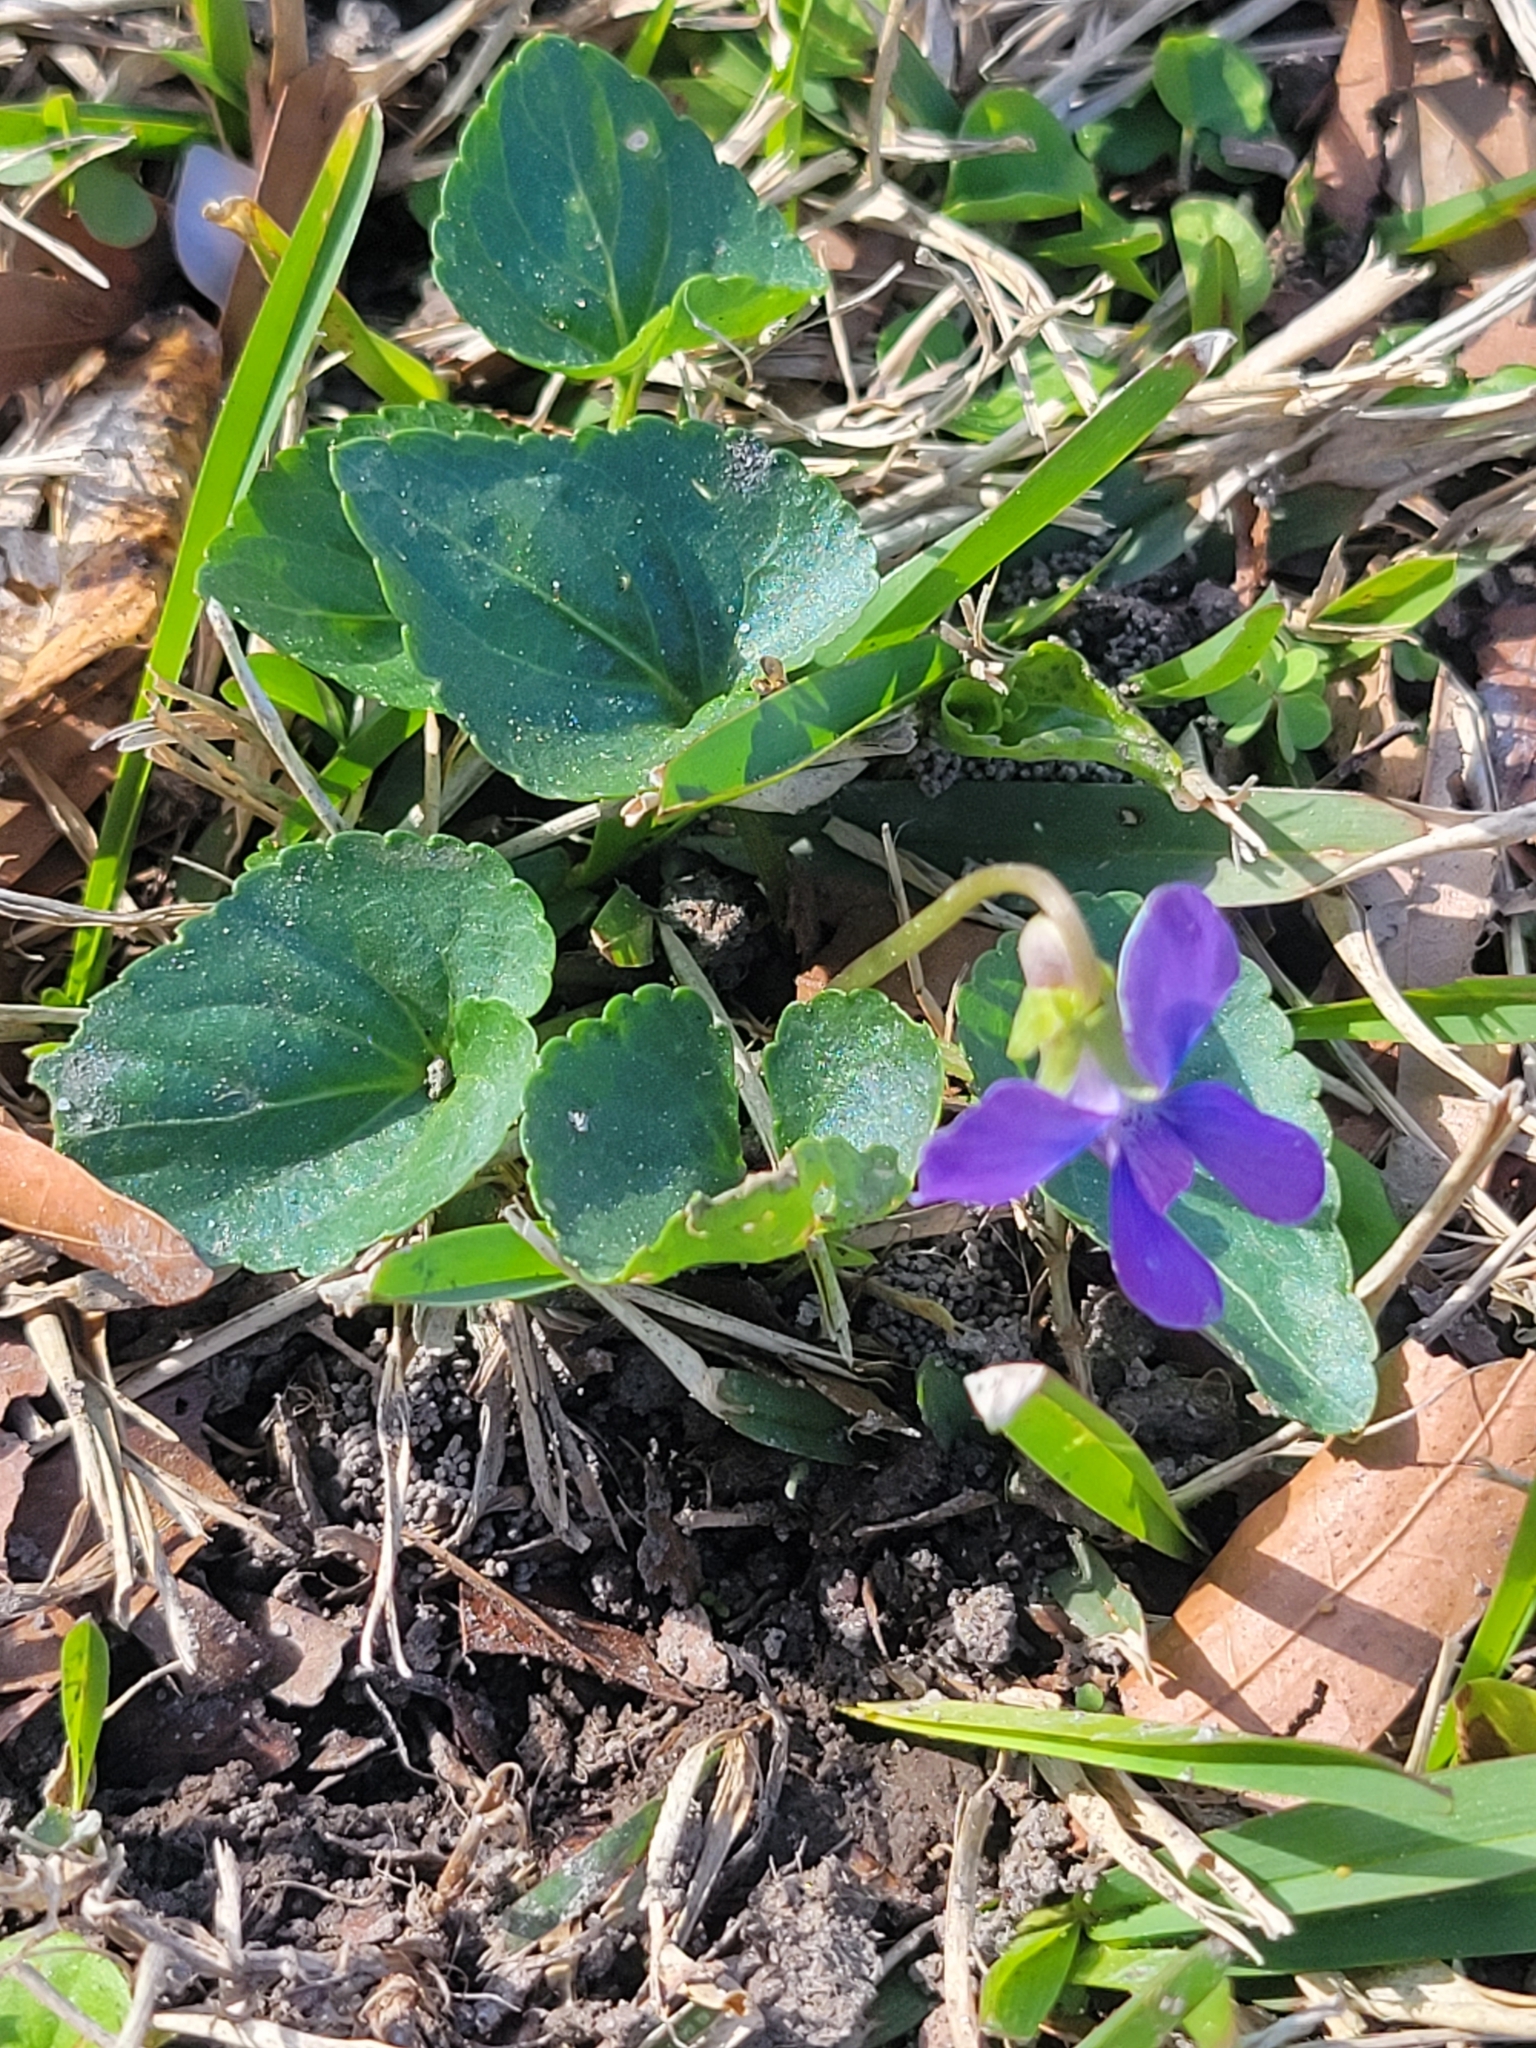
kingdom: Plantae
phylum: Tracheophyta
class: Magnoliopsida
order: Malpighiales
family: Violaceae
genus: Viola
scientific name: Viola sororia
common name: Dooryard violet
